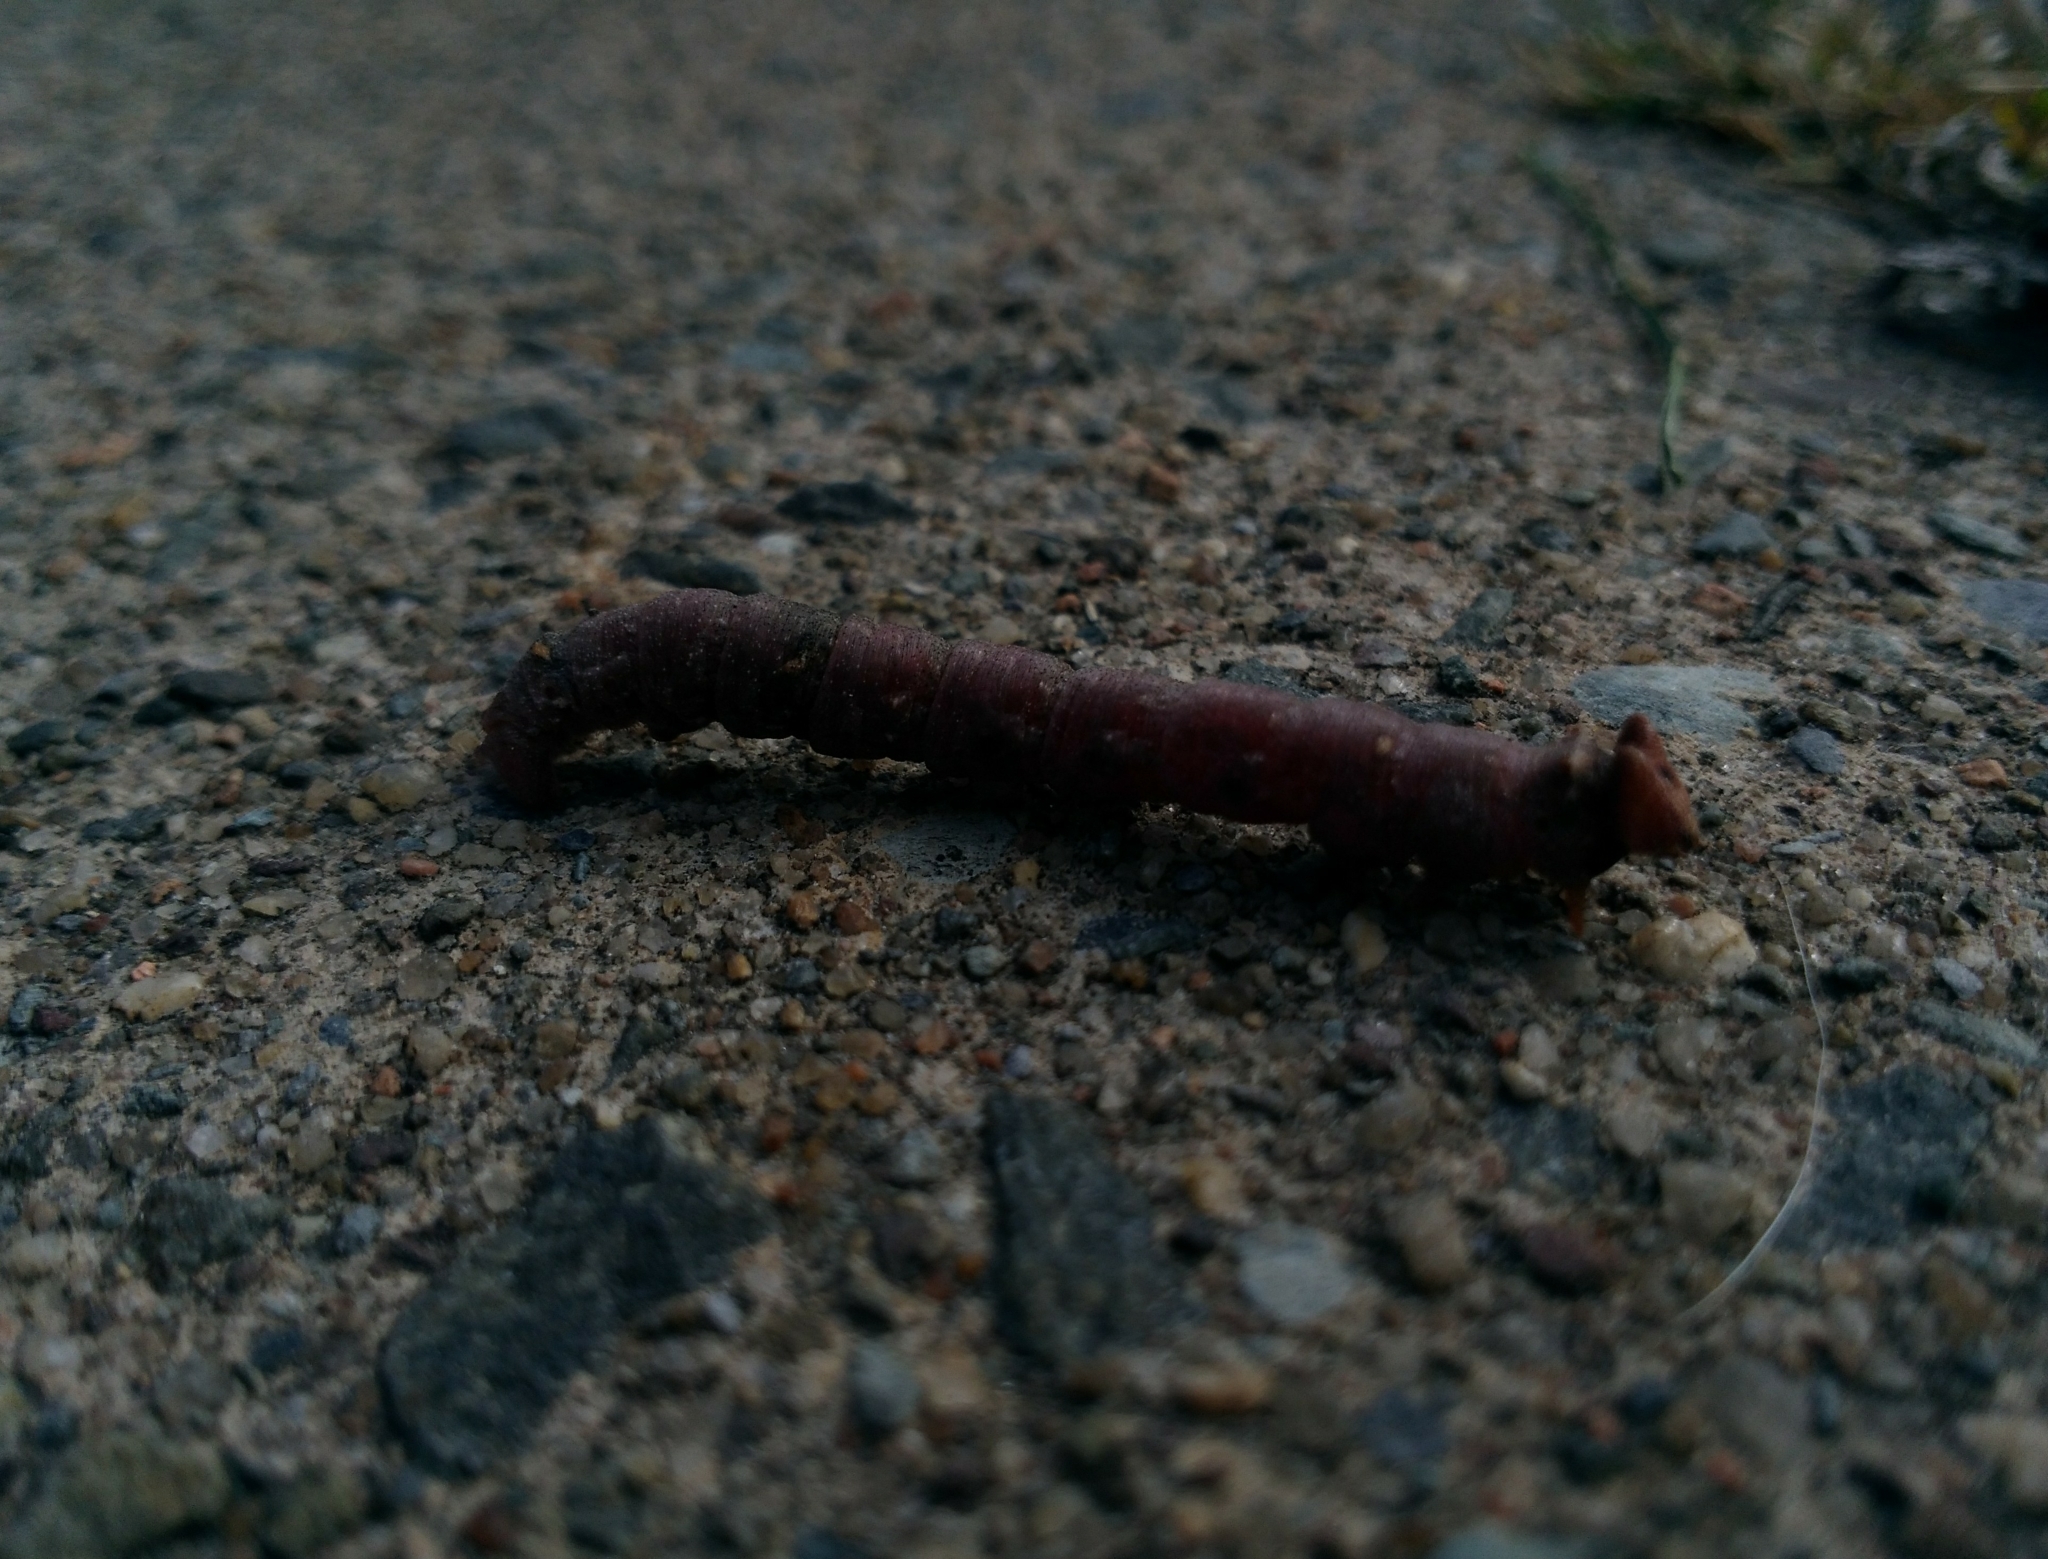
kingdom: Animalia
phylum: Arthropoda
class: Insecta
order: Lepidoptera
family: Geometridae
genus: Biston
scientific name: Biston betularia
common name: Peppered moth
